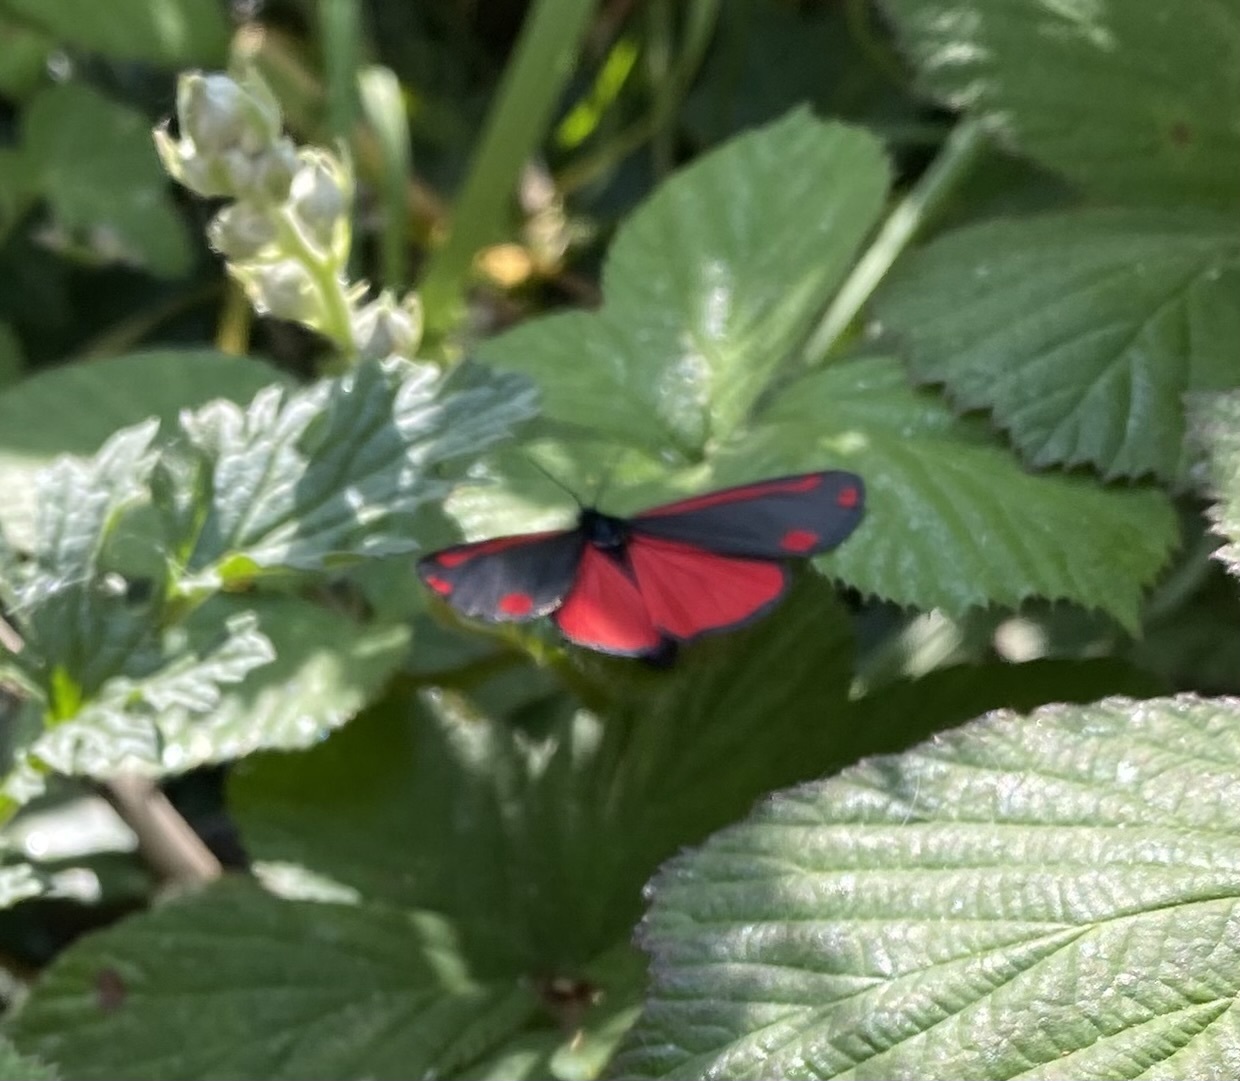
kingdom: Animalia
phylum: Arthropoda
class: Insecta
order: Lepidoptera
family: Erebidae
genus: Tyria
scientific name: Tyria jacobaeae
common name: Cinnabar
